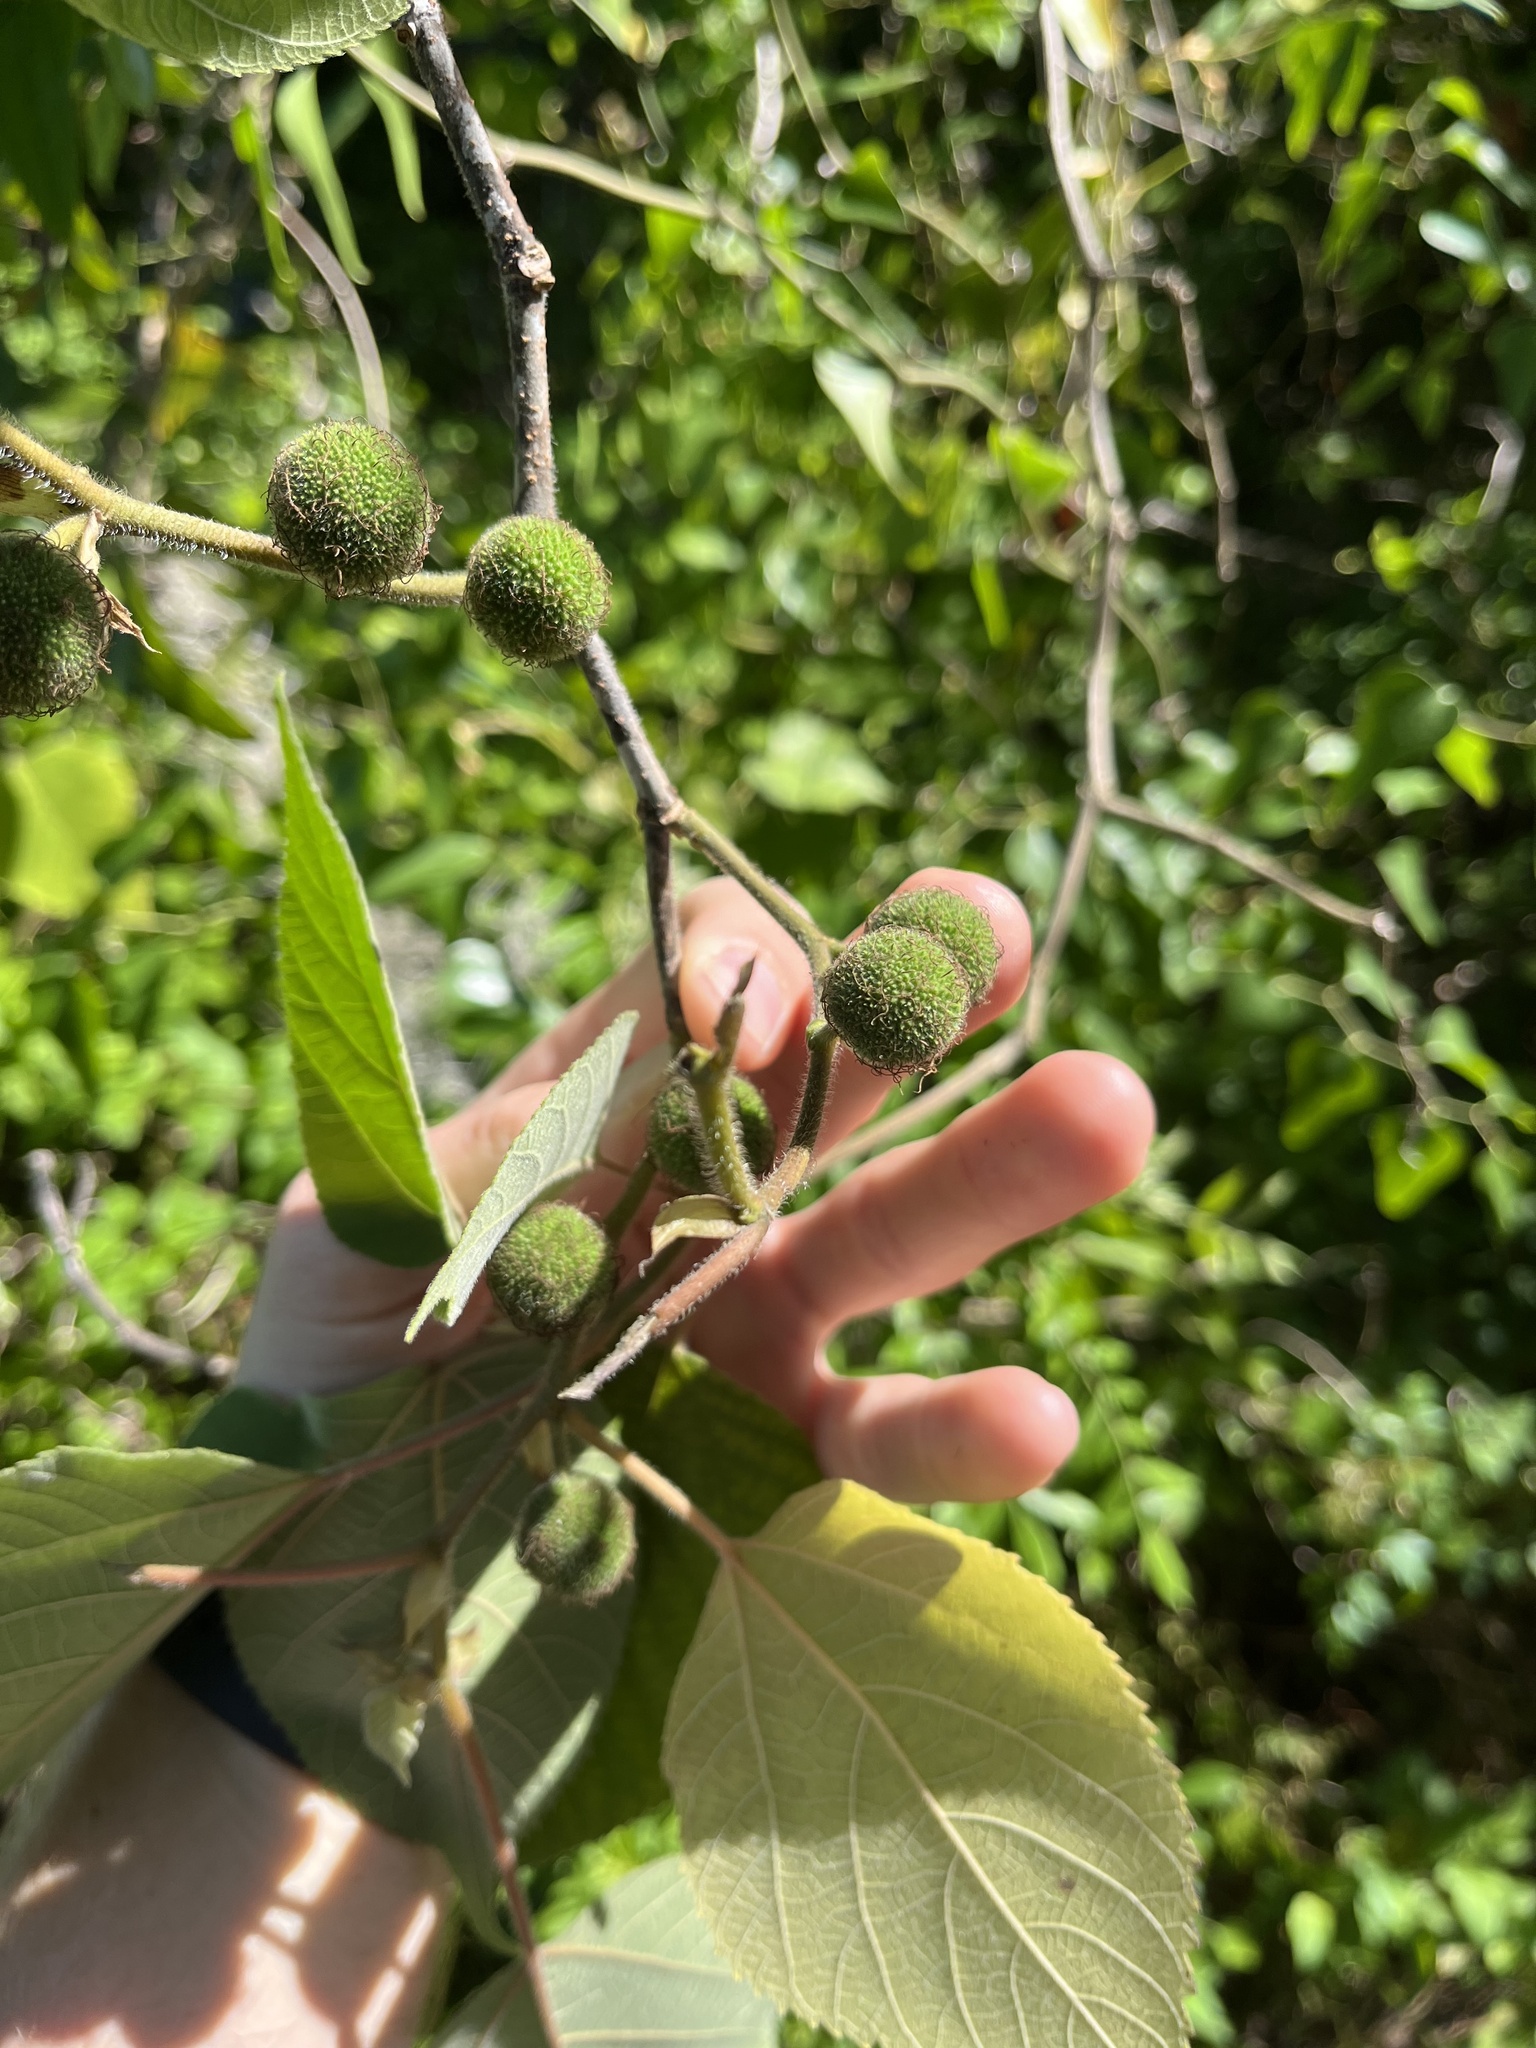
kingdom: Plantae
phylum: Tracheophyta
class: Magnoliopsida
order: Rosales
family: Moraceae
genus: Broussonetia
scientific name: Broussonetia papyrifera
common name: Paper mulberry
